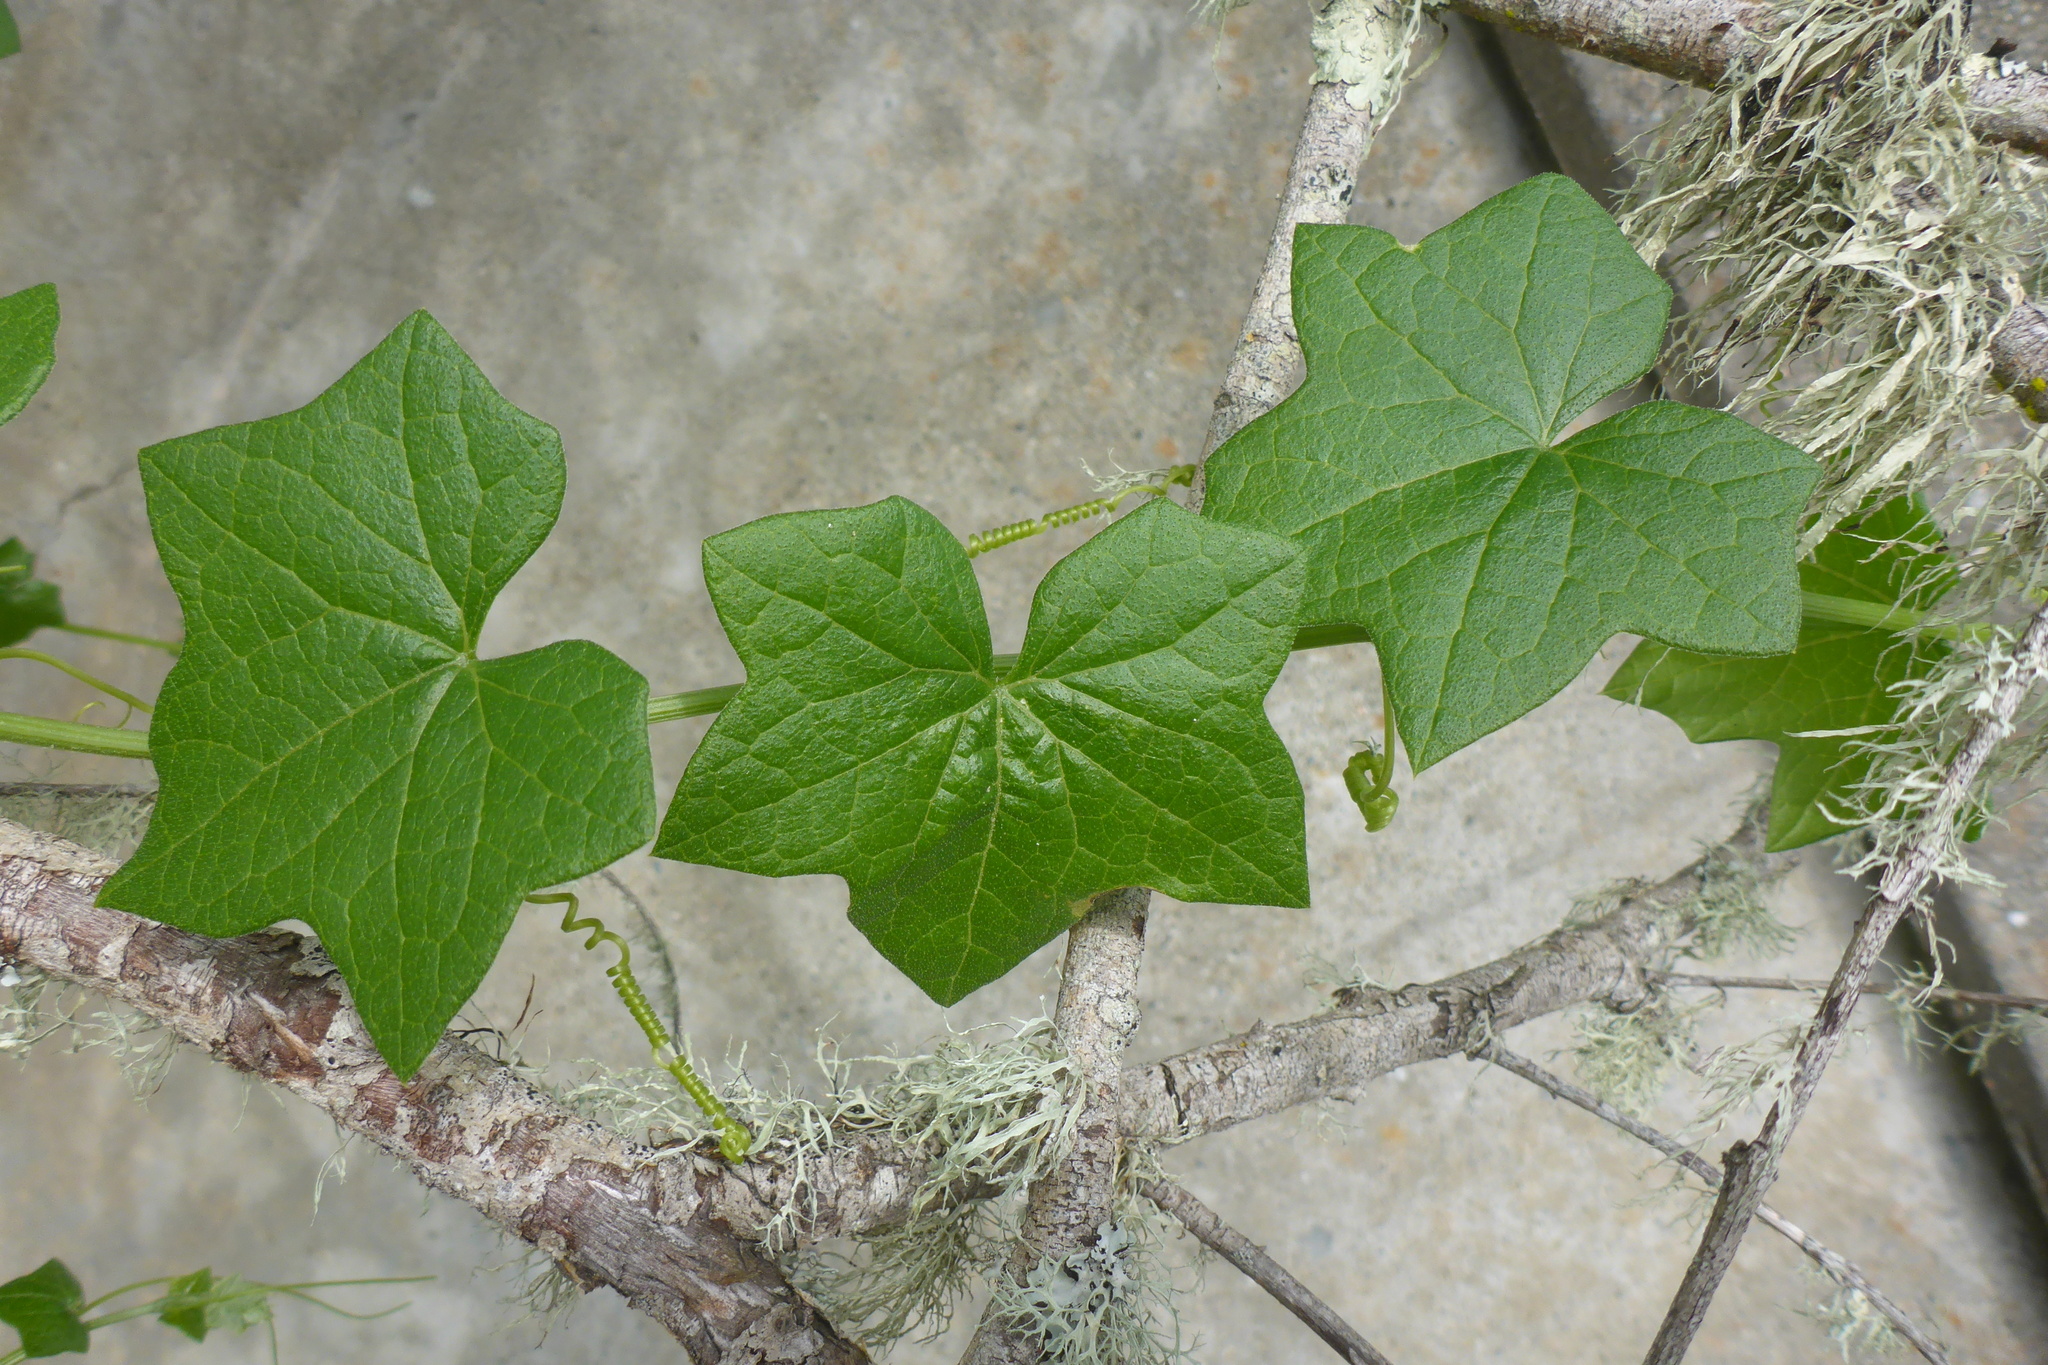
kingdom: Plantae
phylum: Tracheophyta
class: Magnoliopsida
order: Cucurbitales
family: Cucurbitaceae
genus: Marah
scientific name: Marah fabacea
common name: California manroot
